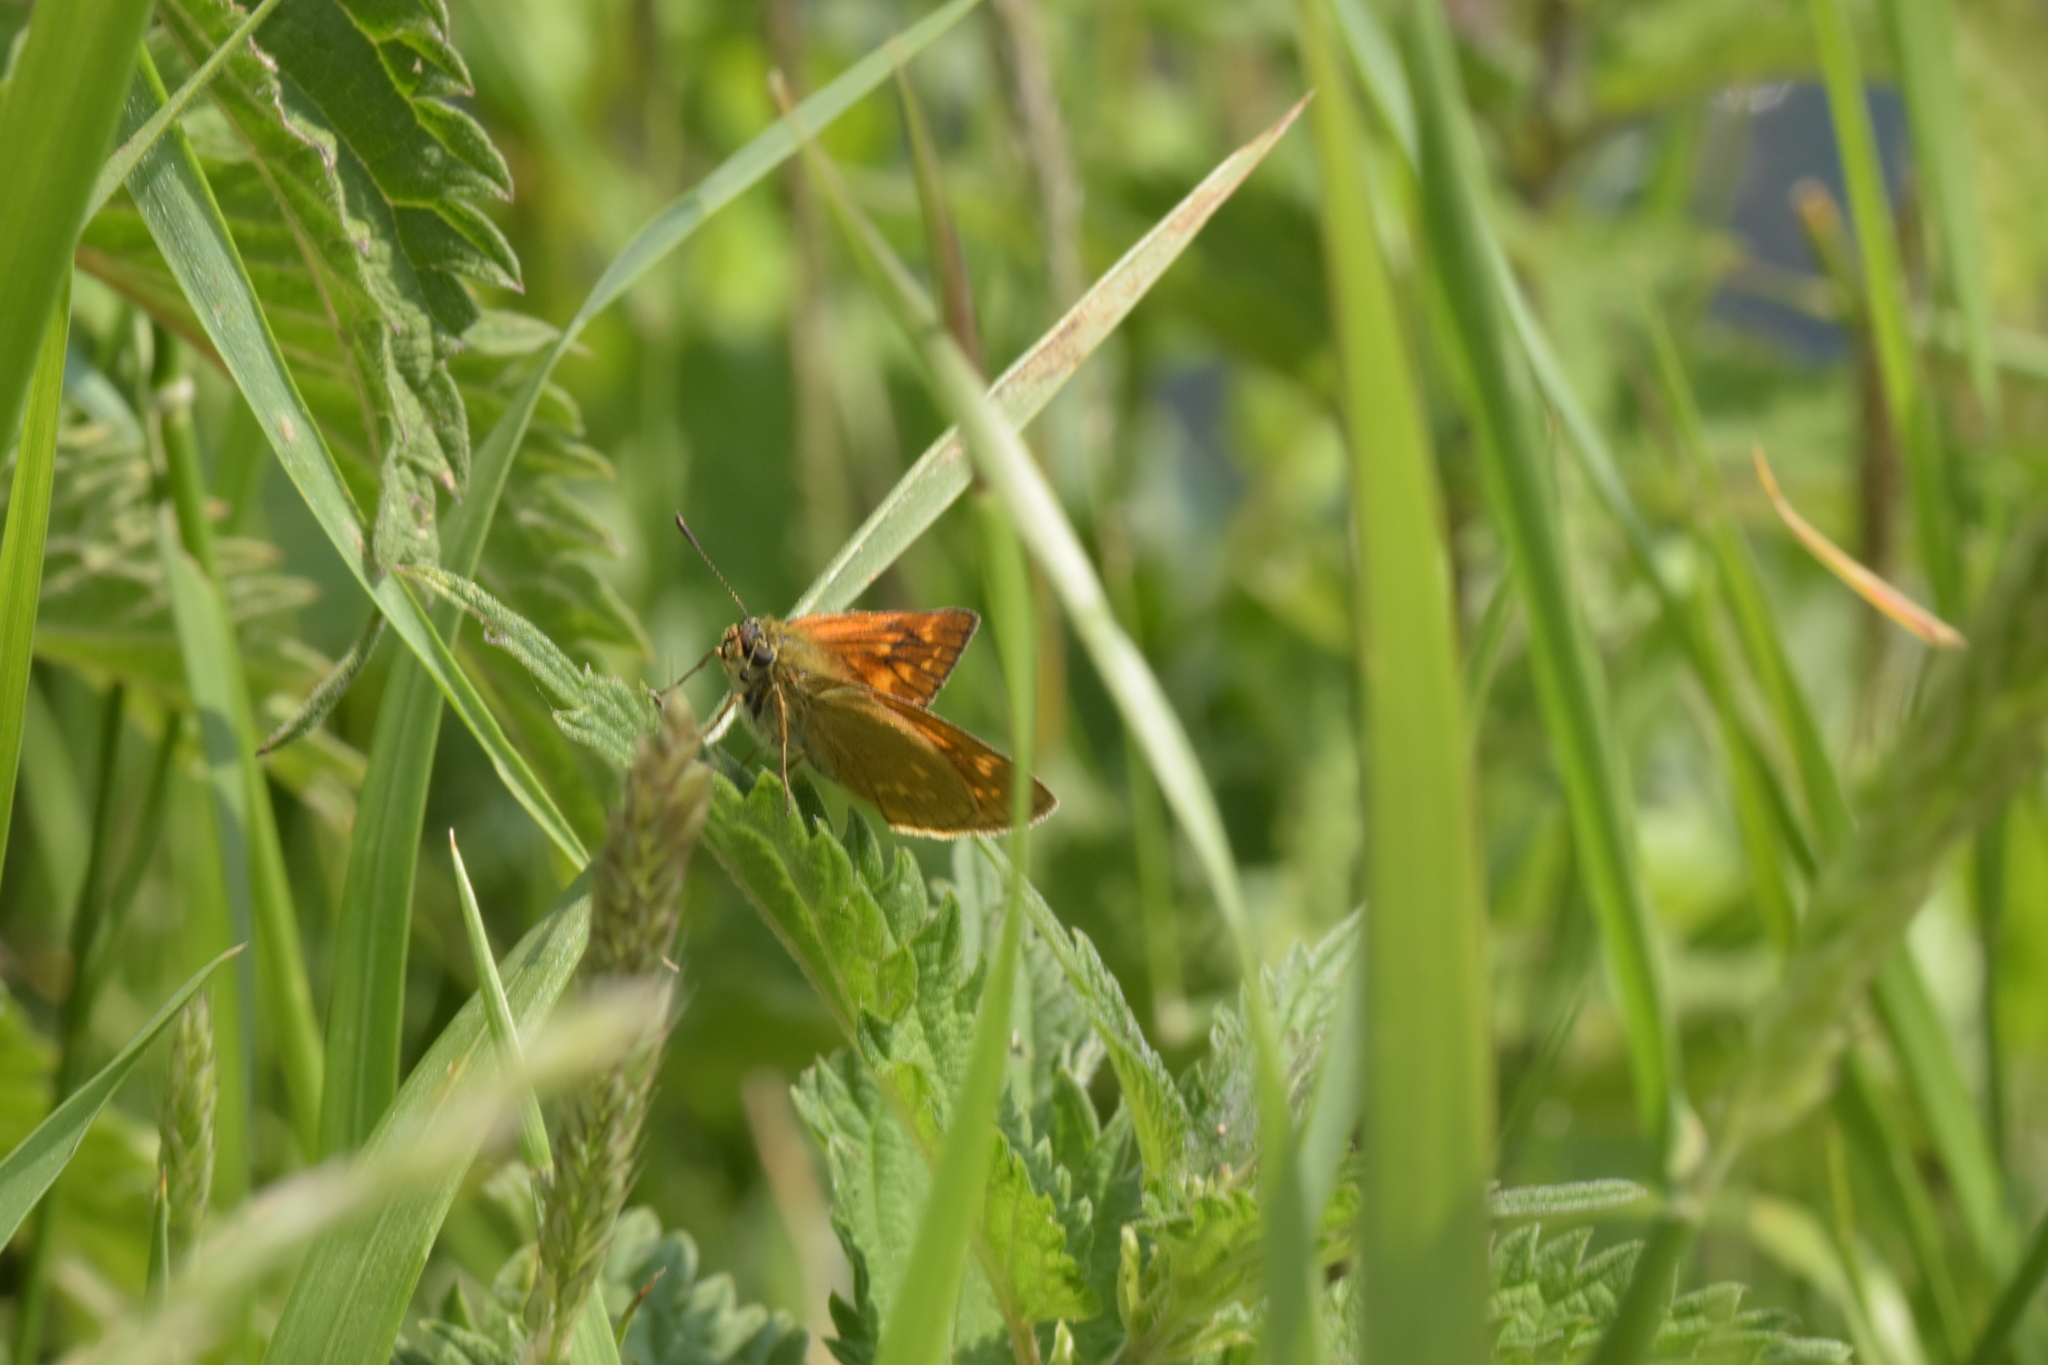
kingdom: Animalia
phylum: Arthropoda
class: Insecta
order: Lepidoptera
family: Hesperiidae
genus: Ochlodes
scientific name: Ochlodes venata
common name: Large skipper
